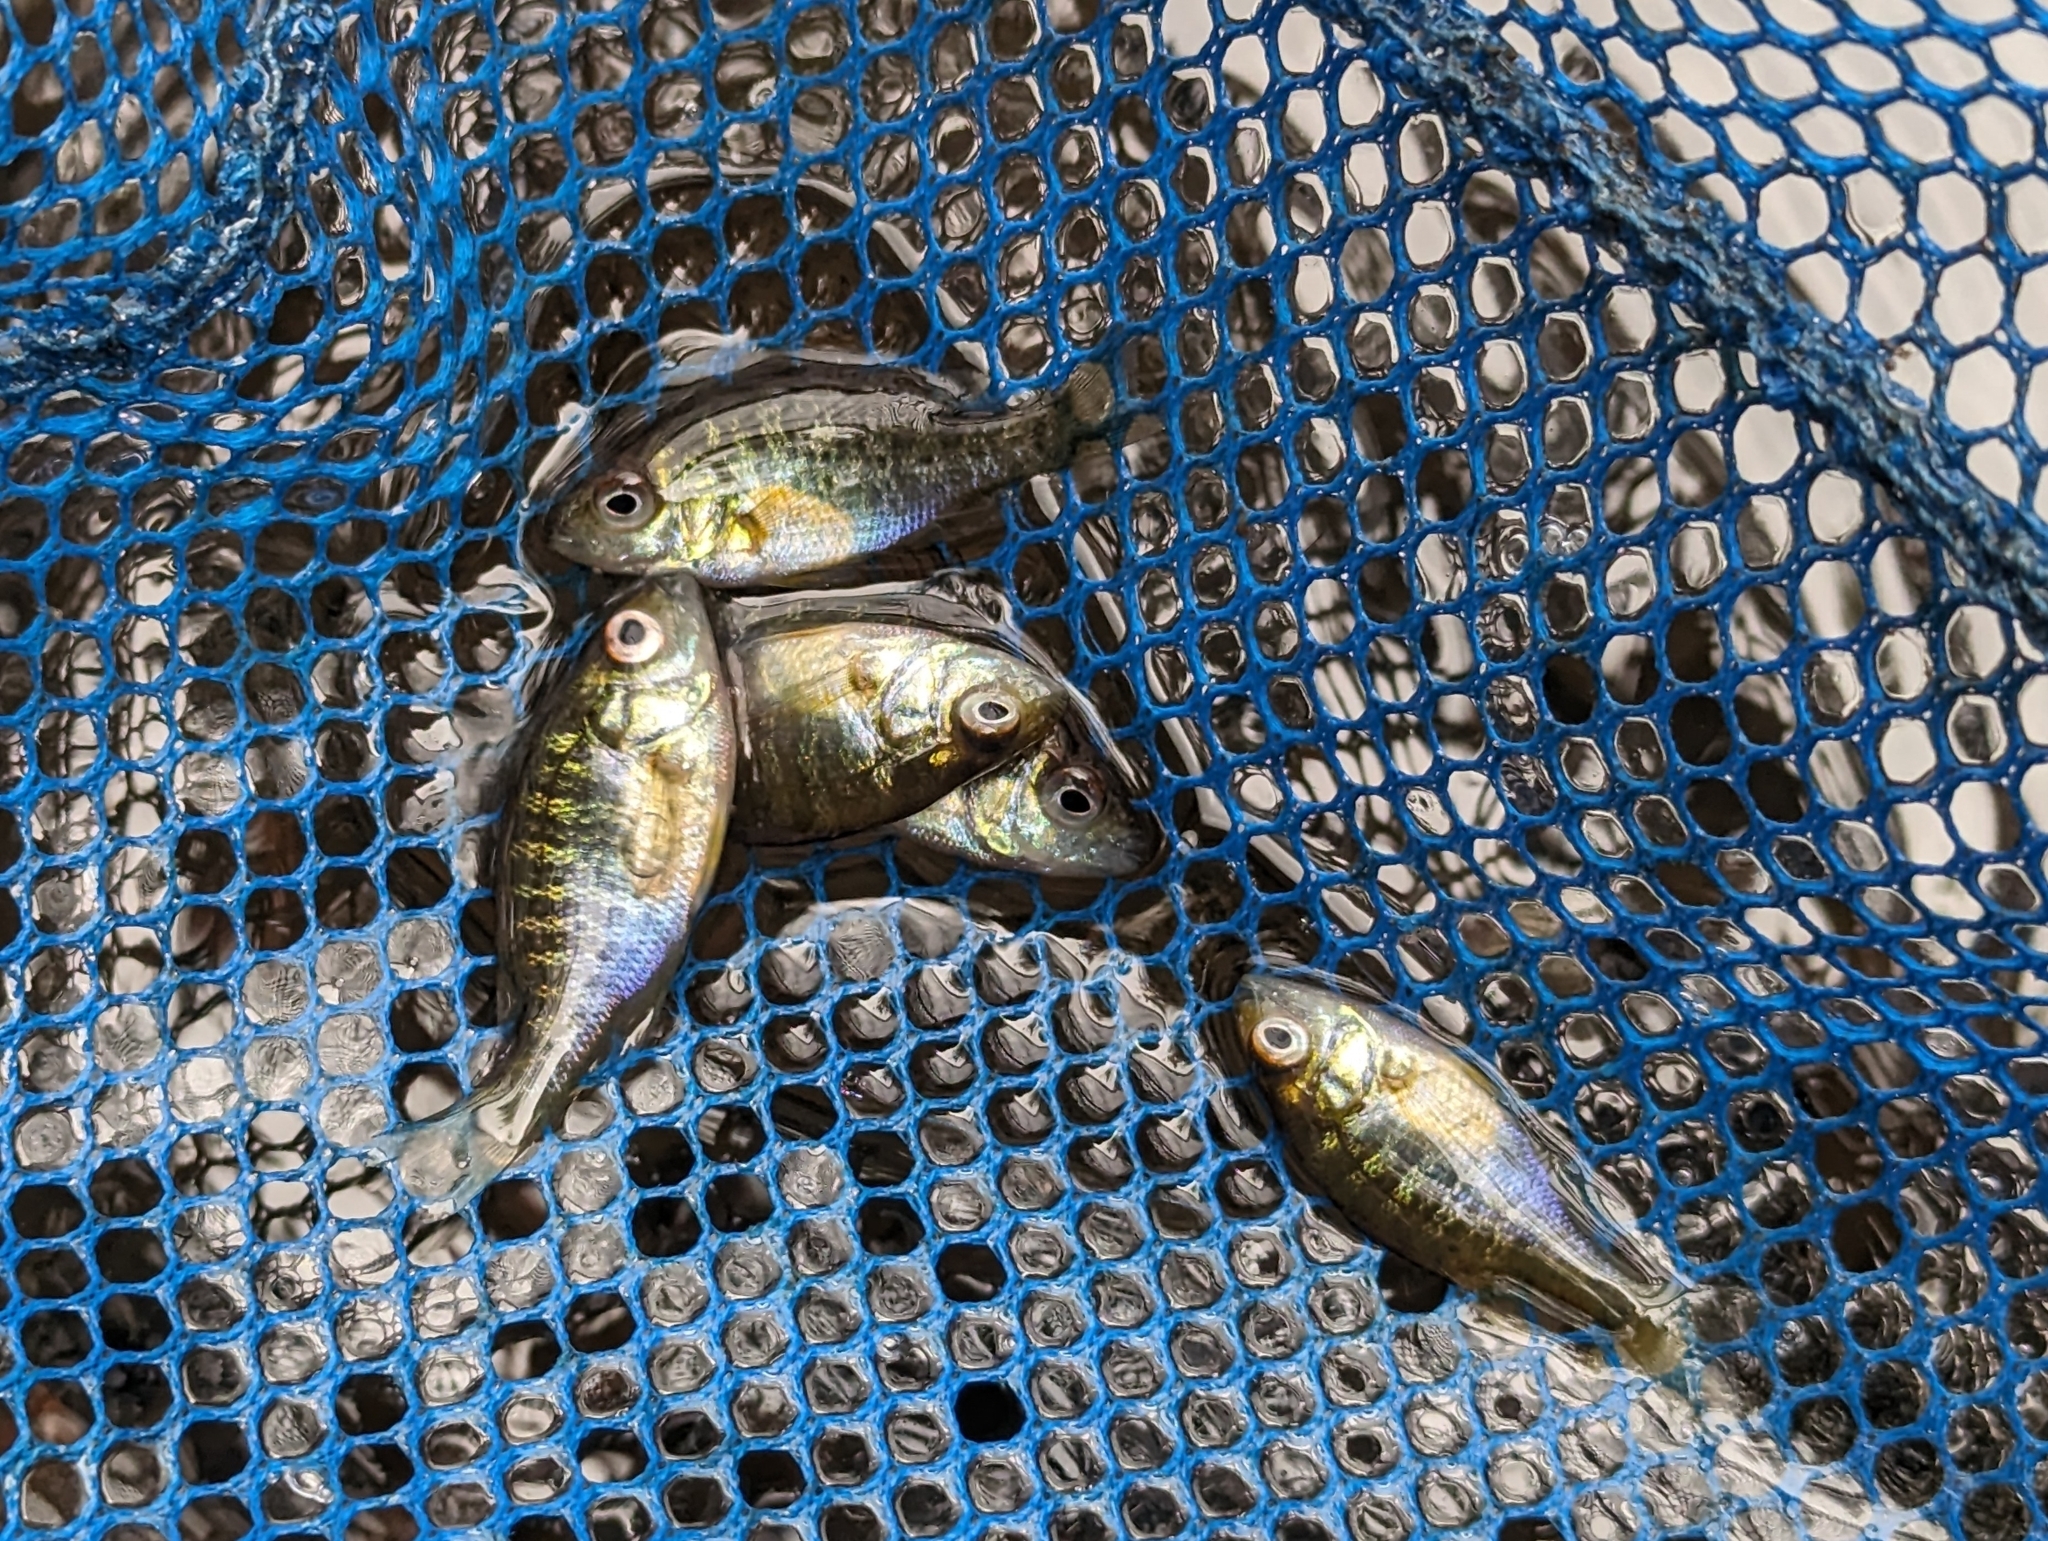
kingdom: Animalia
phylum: Chordata
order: Perciformes
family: Centrarchidae
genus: Lepomis
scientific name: Lepomis gibbosus
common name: Pumpkinseed
